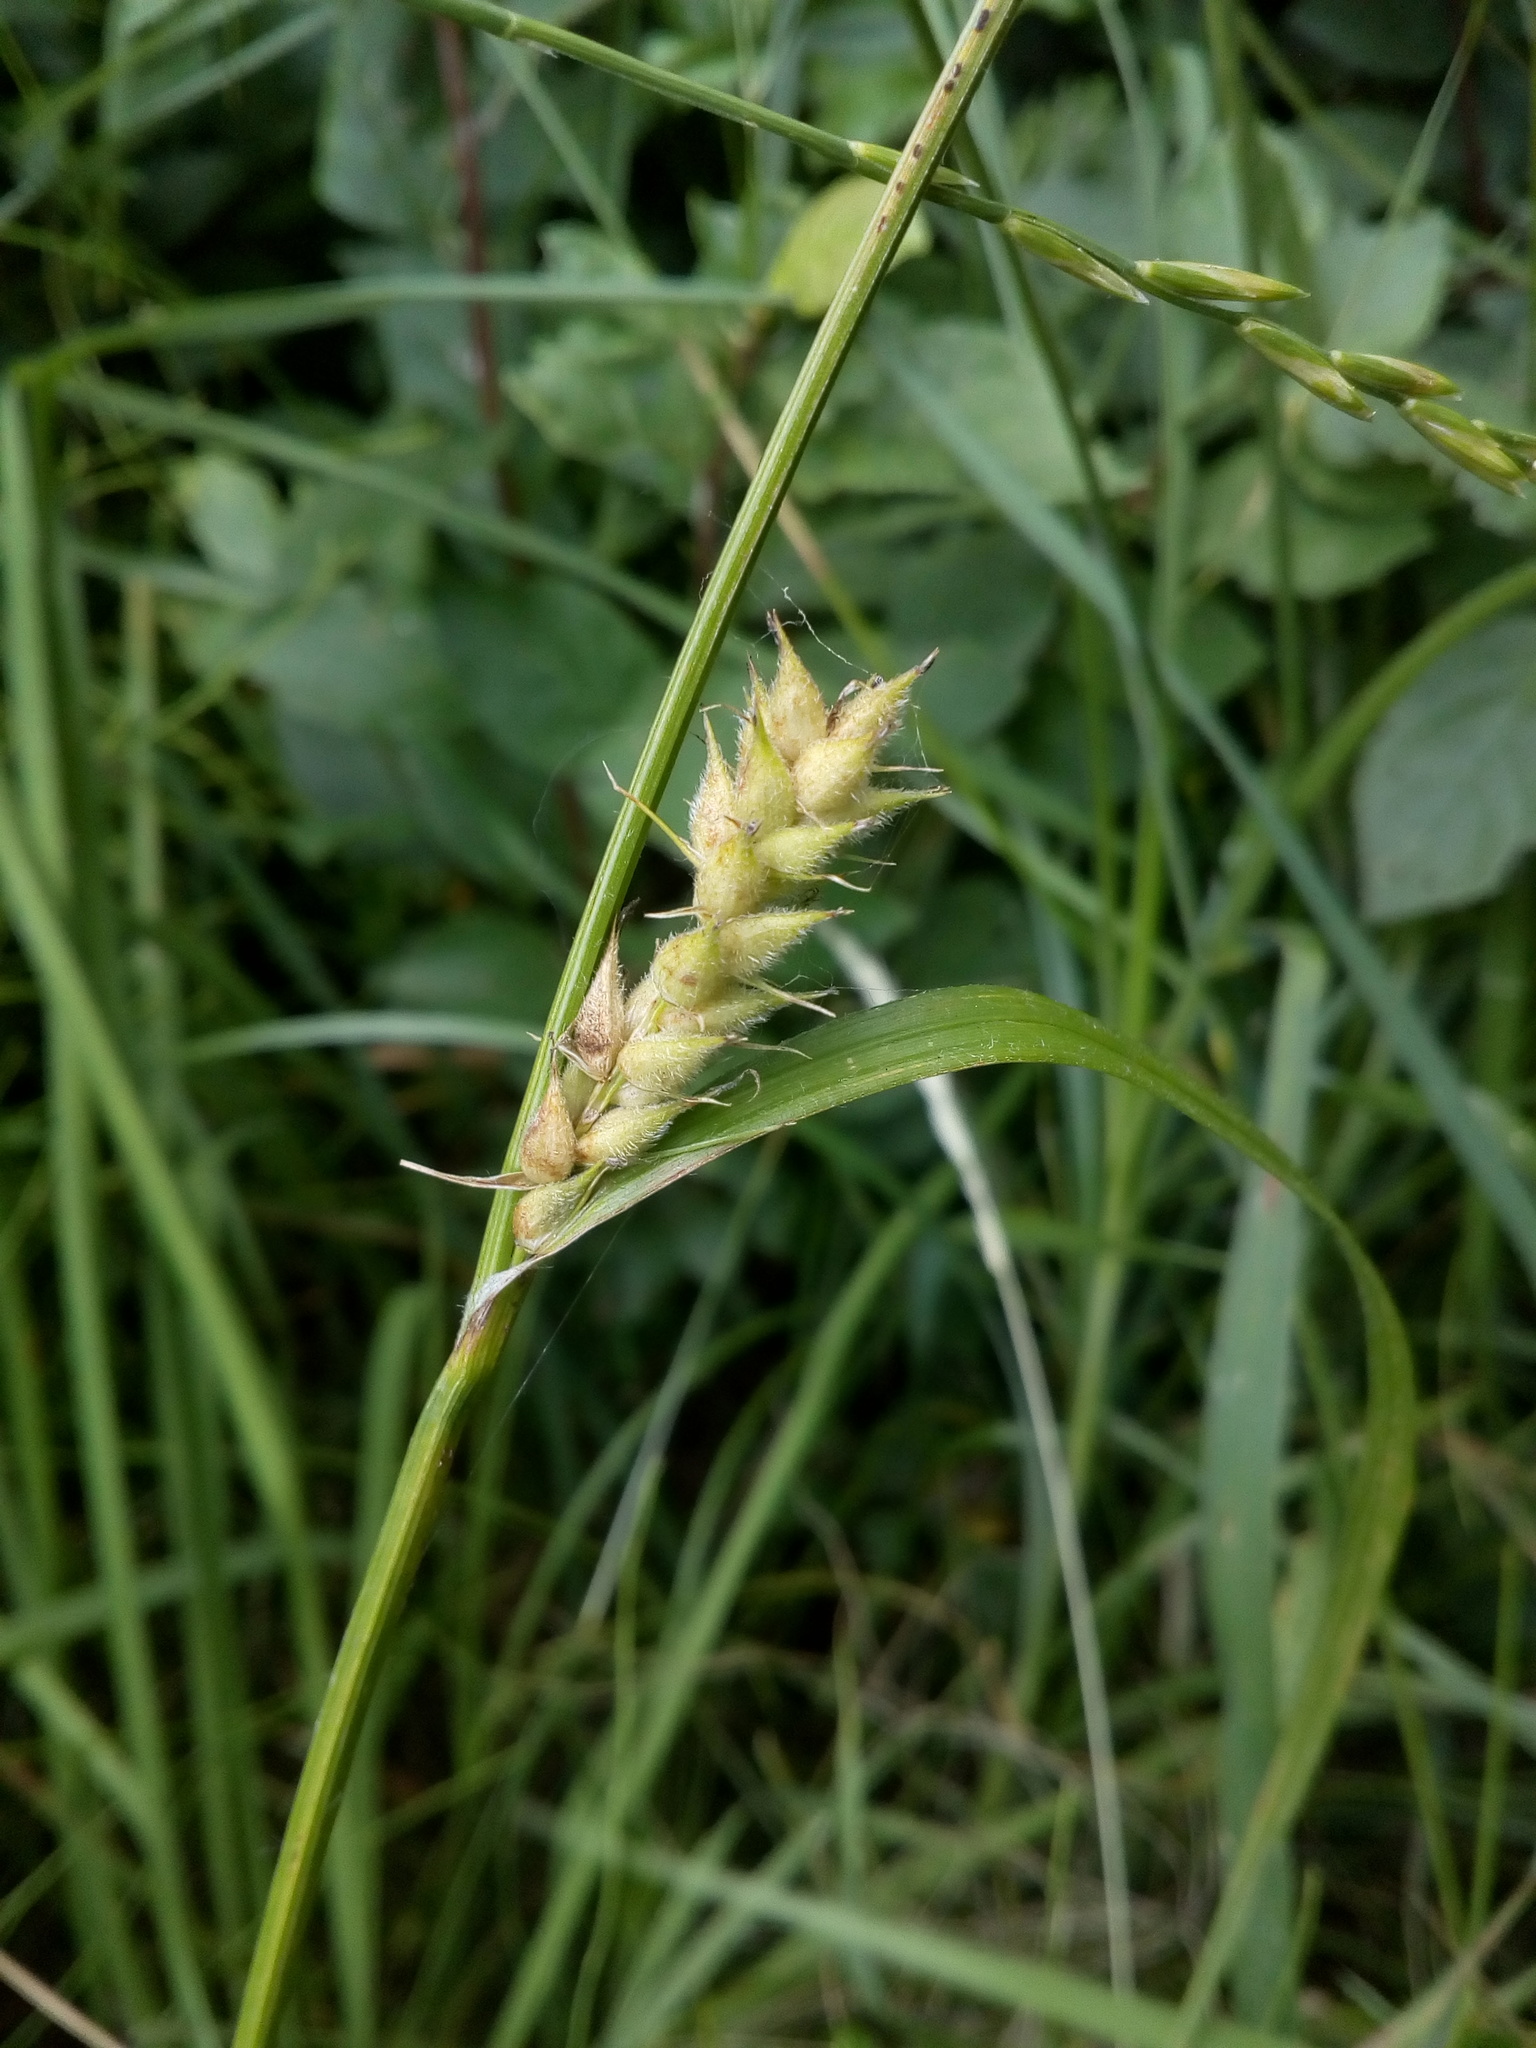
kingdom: Plantae
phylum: Tracheophyta
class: Liliopsida
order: Poales
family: Cyperaceae
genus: Carex
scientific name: Carex hirta
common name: Hairy sedge
